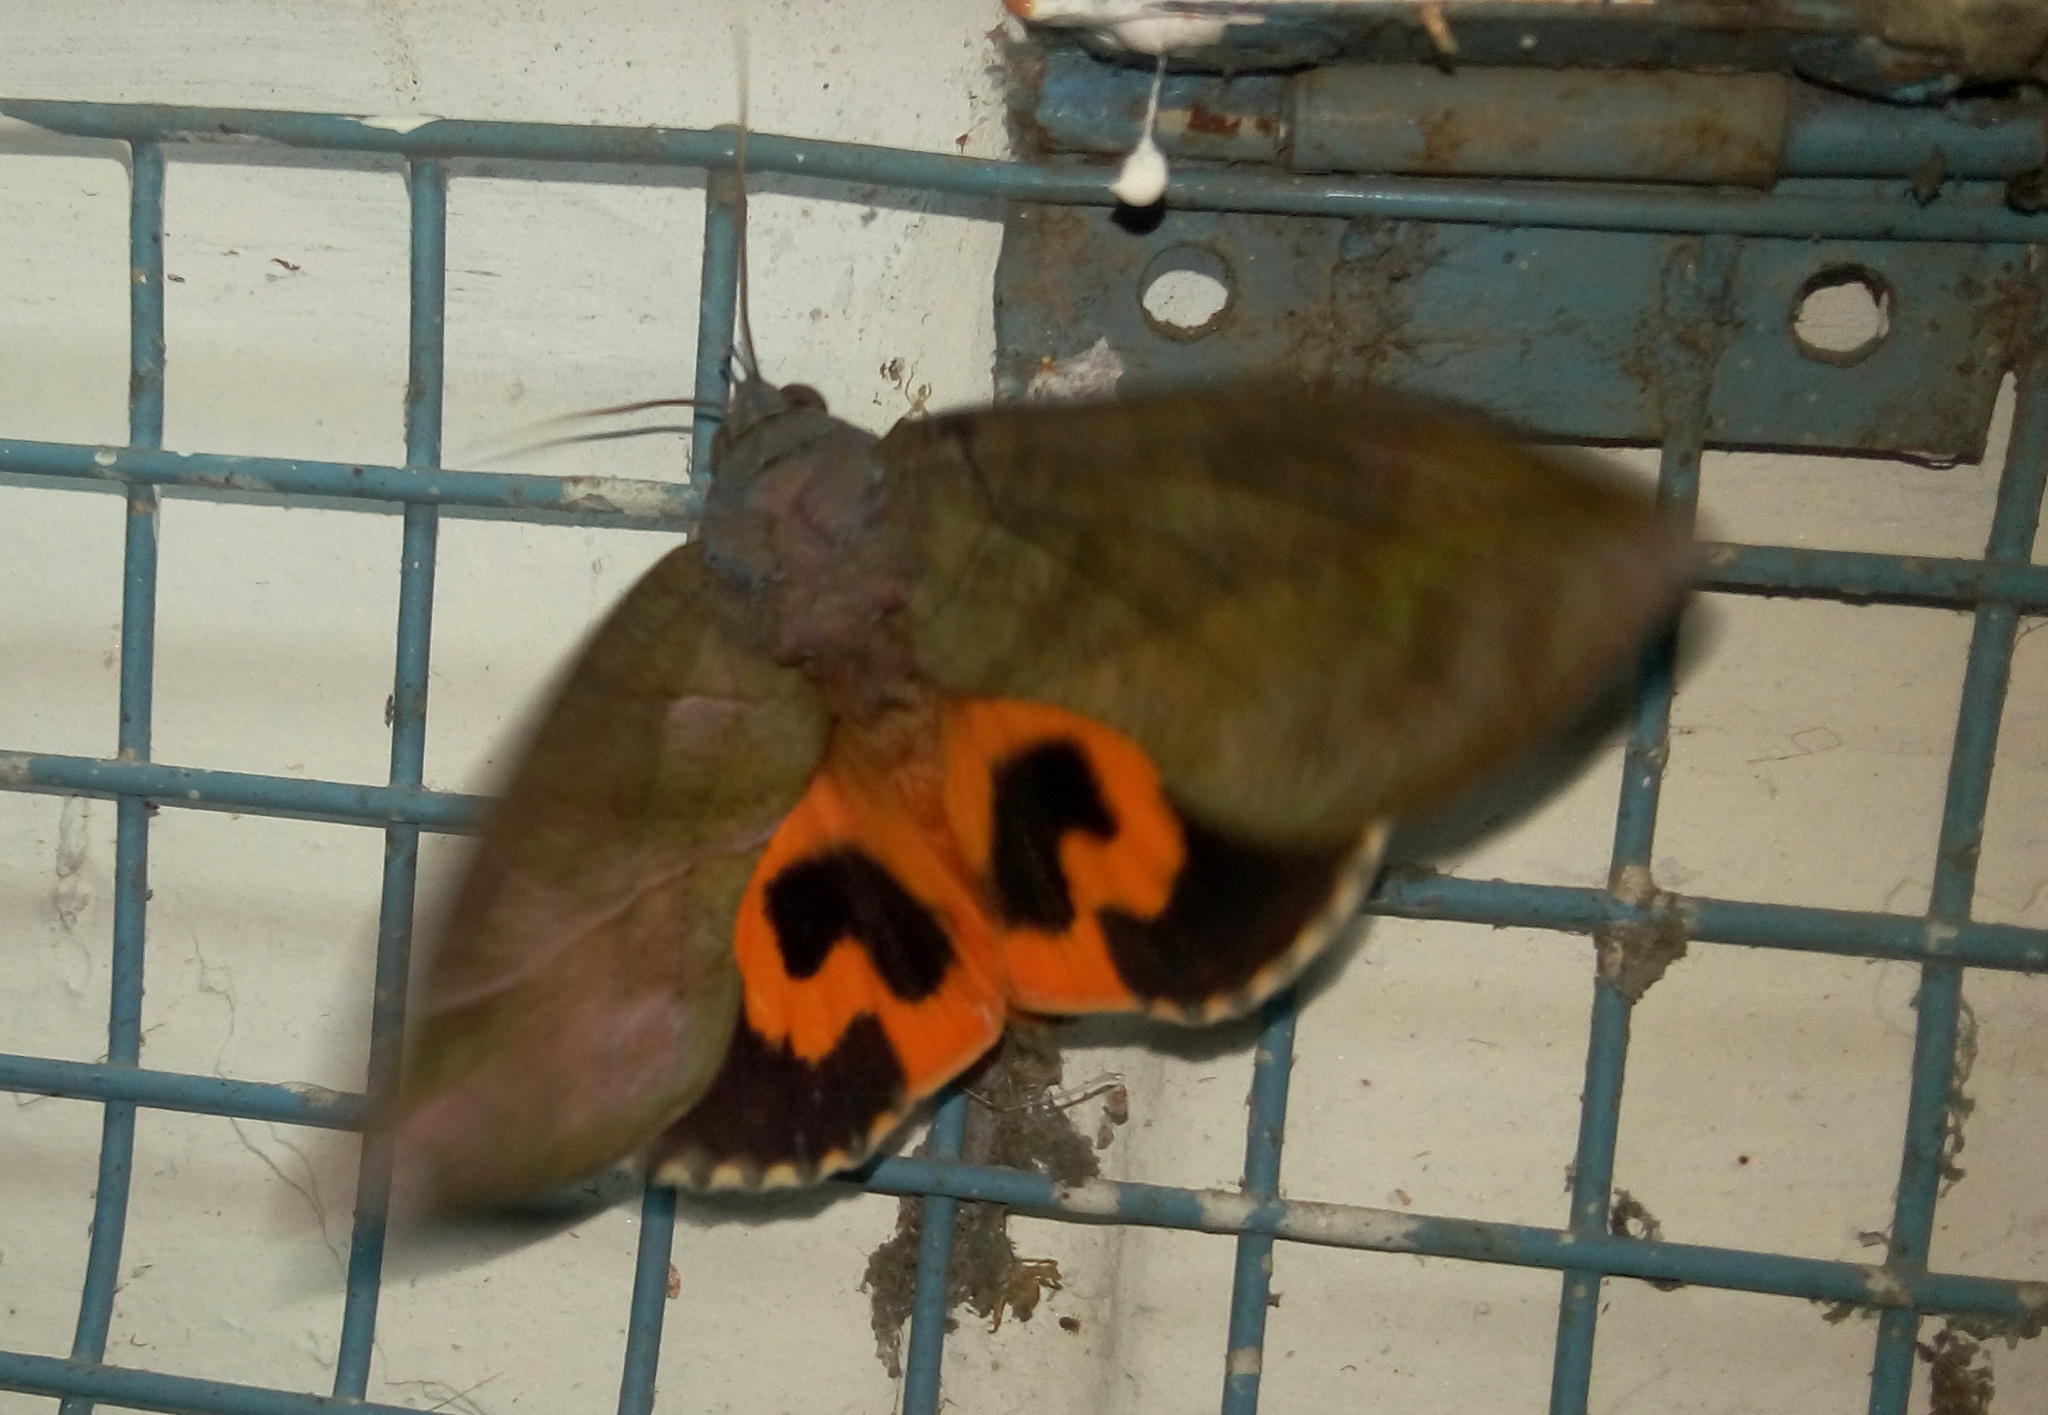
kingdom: Animalia
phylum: Arthropoda
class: Insecta
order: Lepidoptera
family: Erebidae
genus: Eudocima
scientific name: Eudocima phalonia
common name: Wasp
